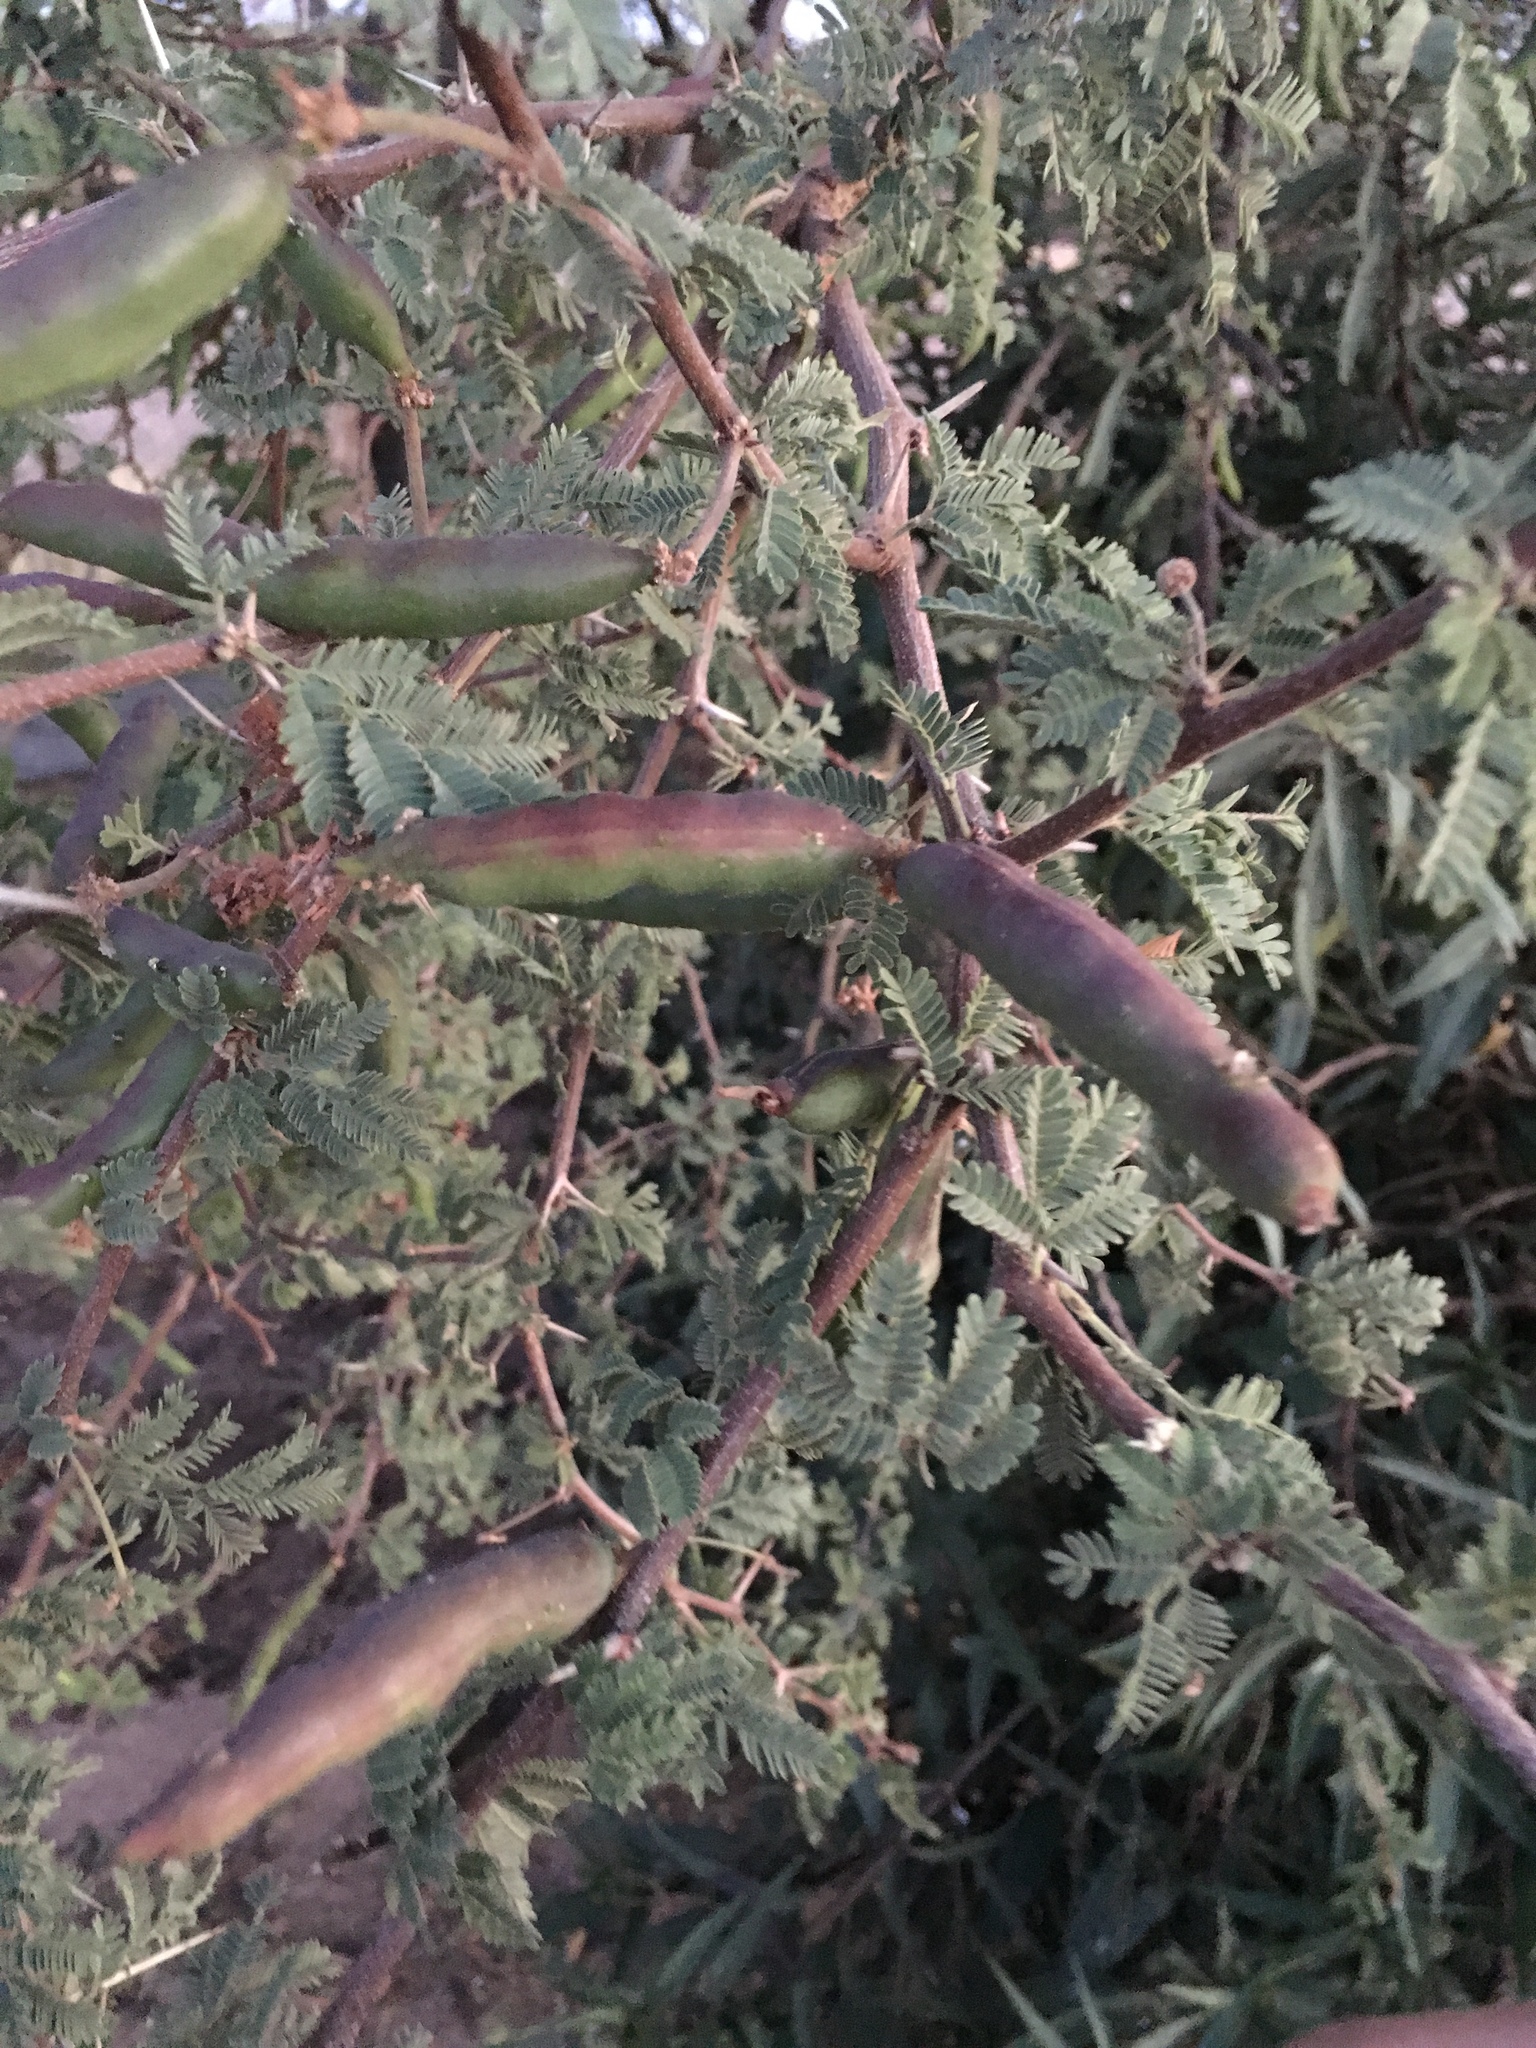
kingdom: Plantae
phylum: Tracheophyta
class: Magnoliopsida
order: Fabales
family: Fabaceae
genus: Vachellia
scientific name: Vachellia farnesiana
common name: Sweet acacia
